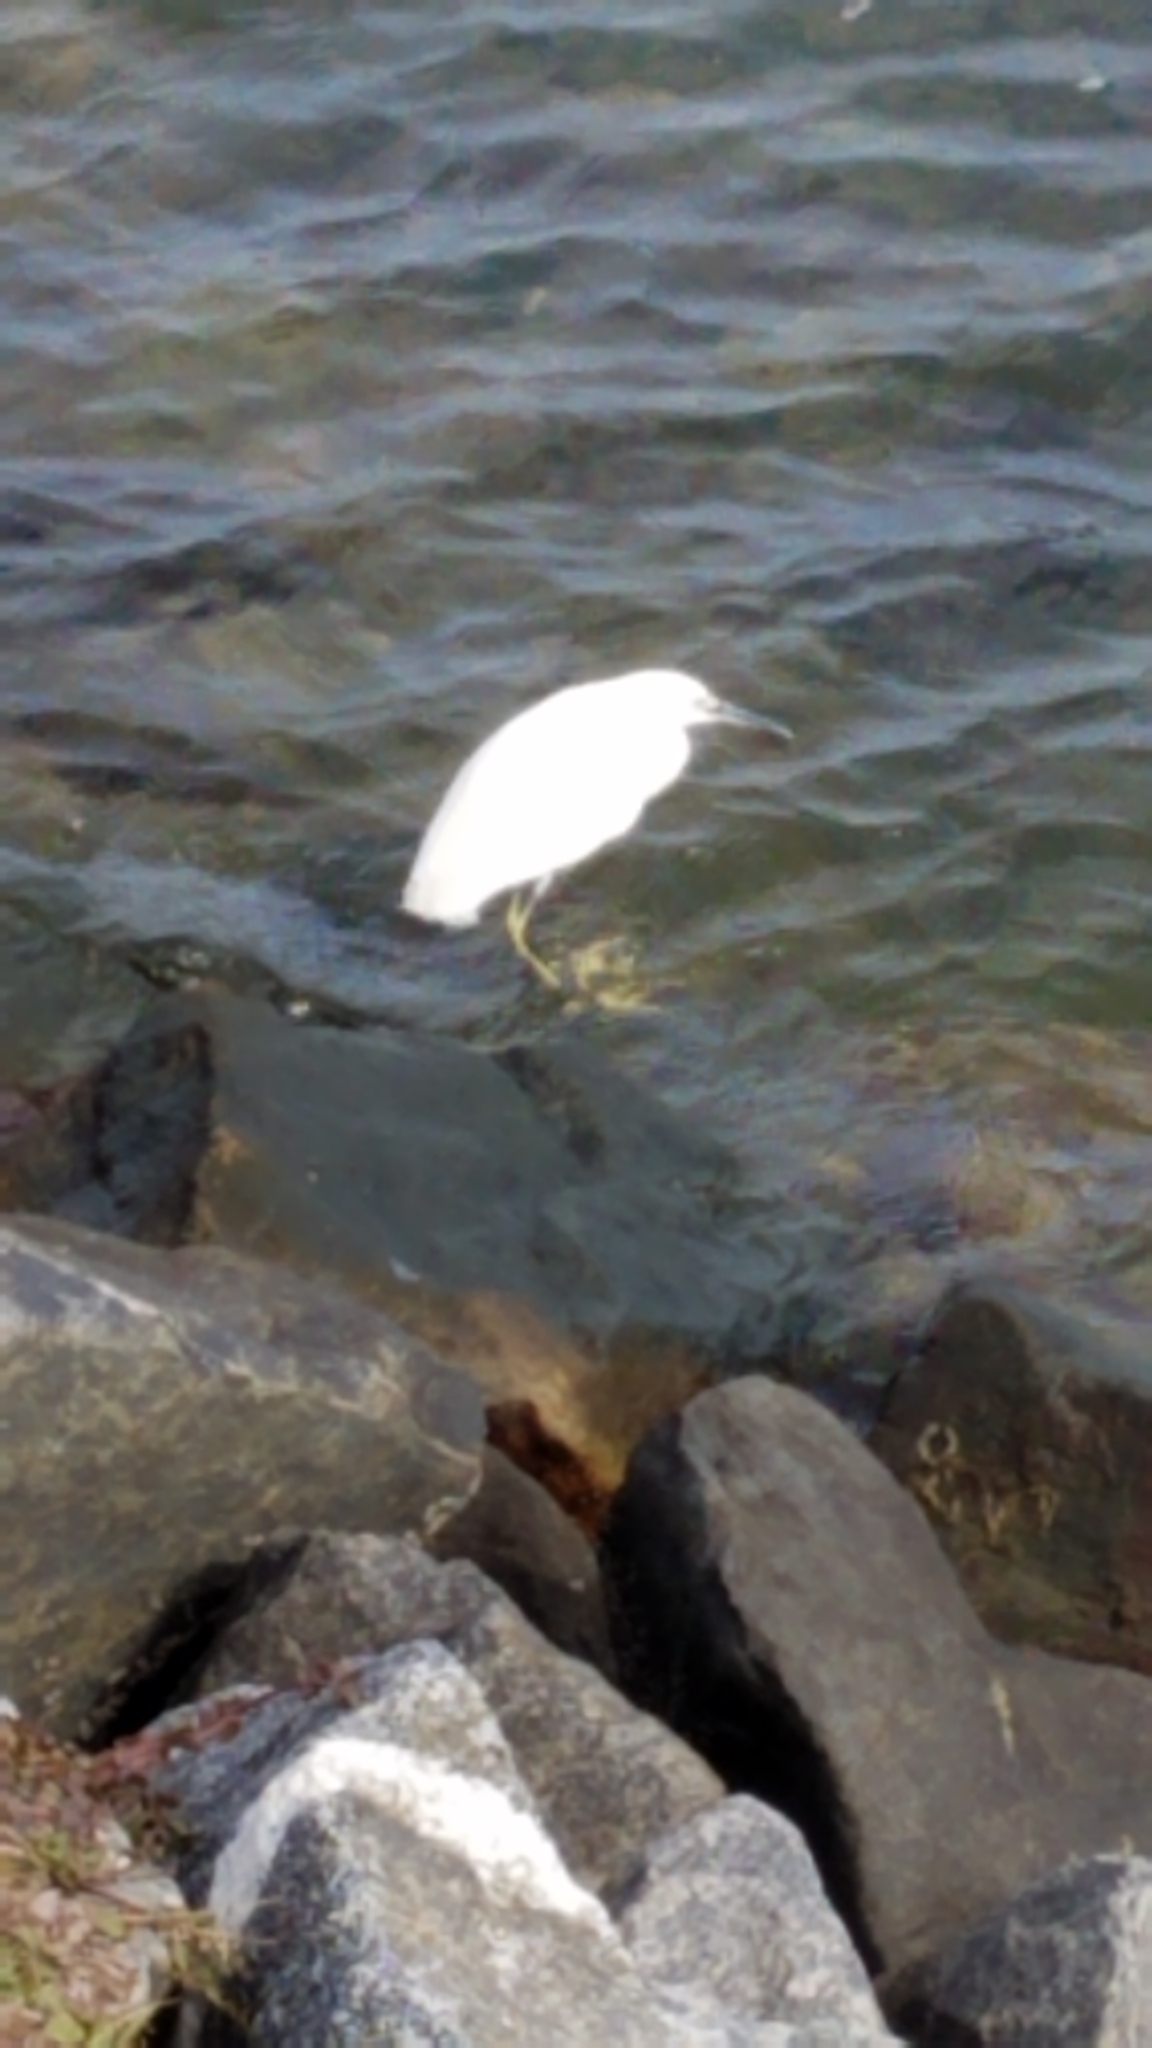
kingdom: Animalia
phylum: Chordata
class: Aves
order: Pelecaniformes
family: Ardeidae
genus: Egretta
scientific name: Egretta thula
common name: Snowy egret
